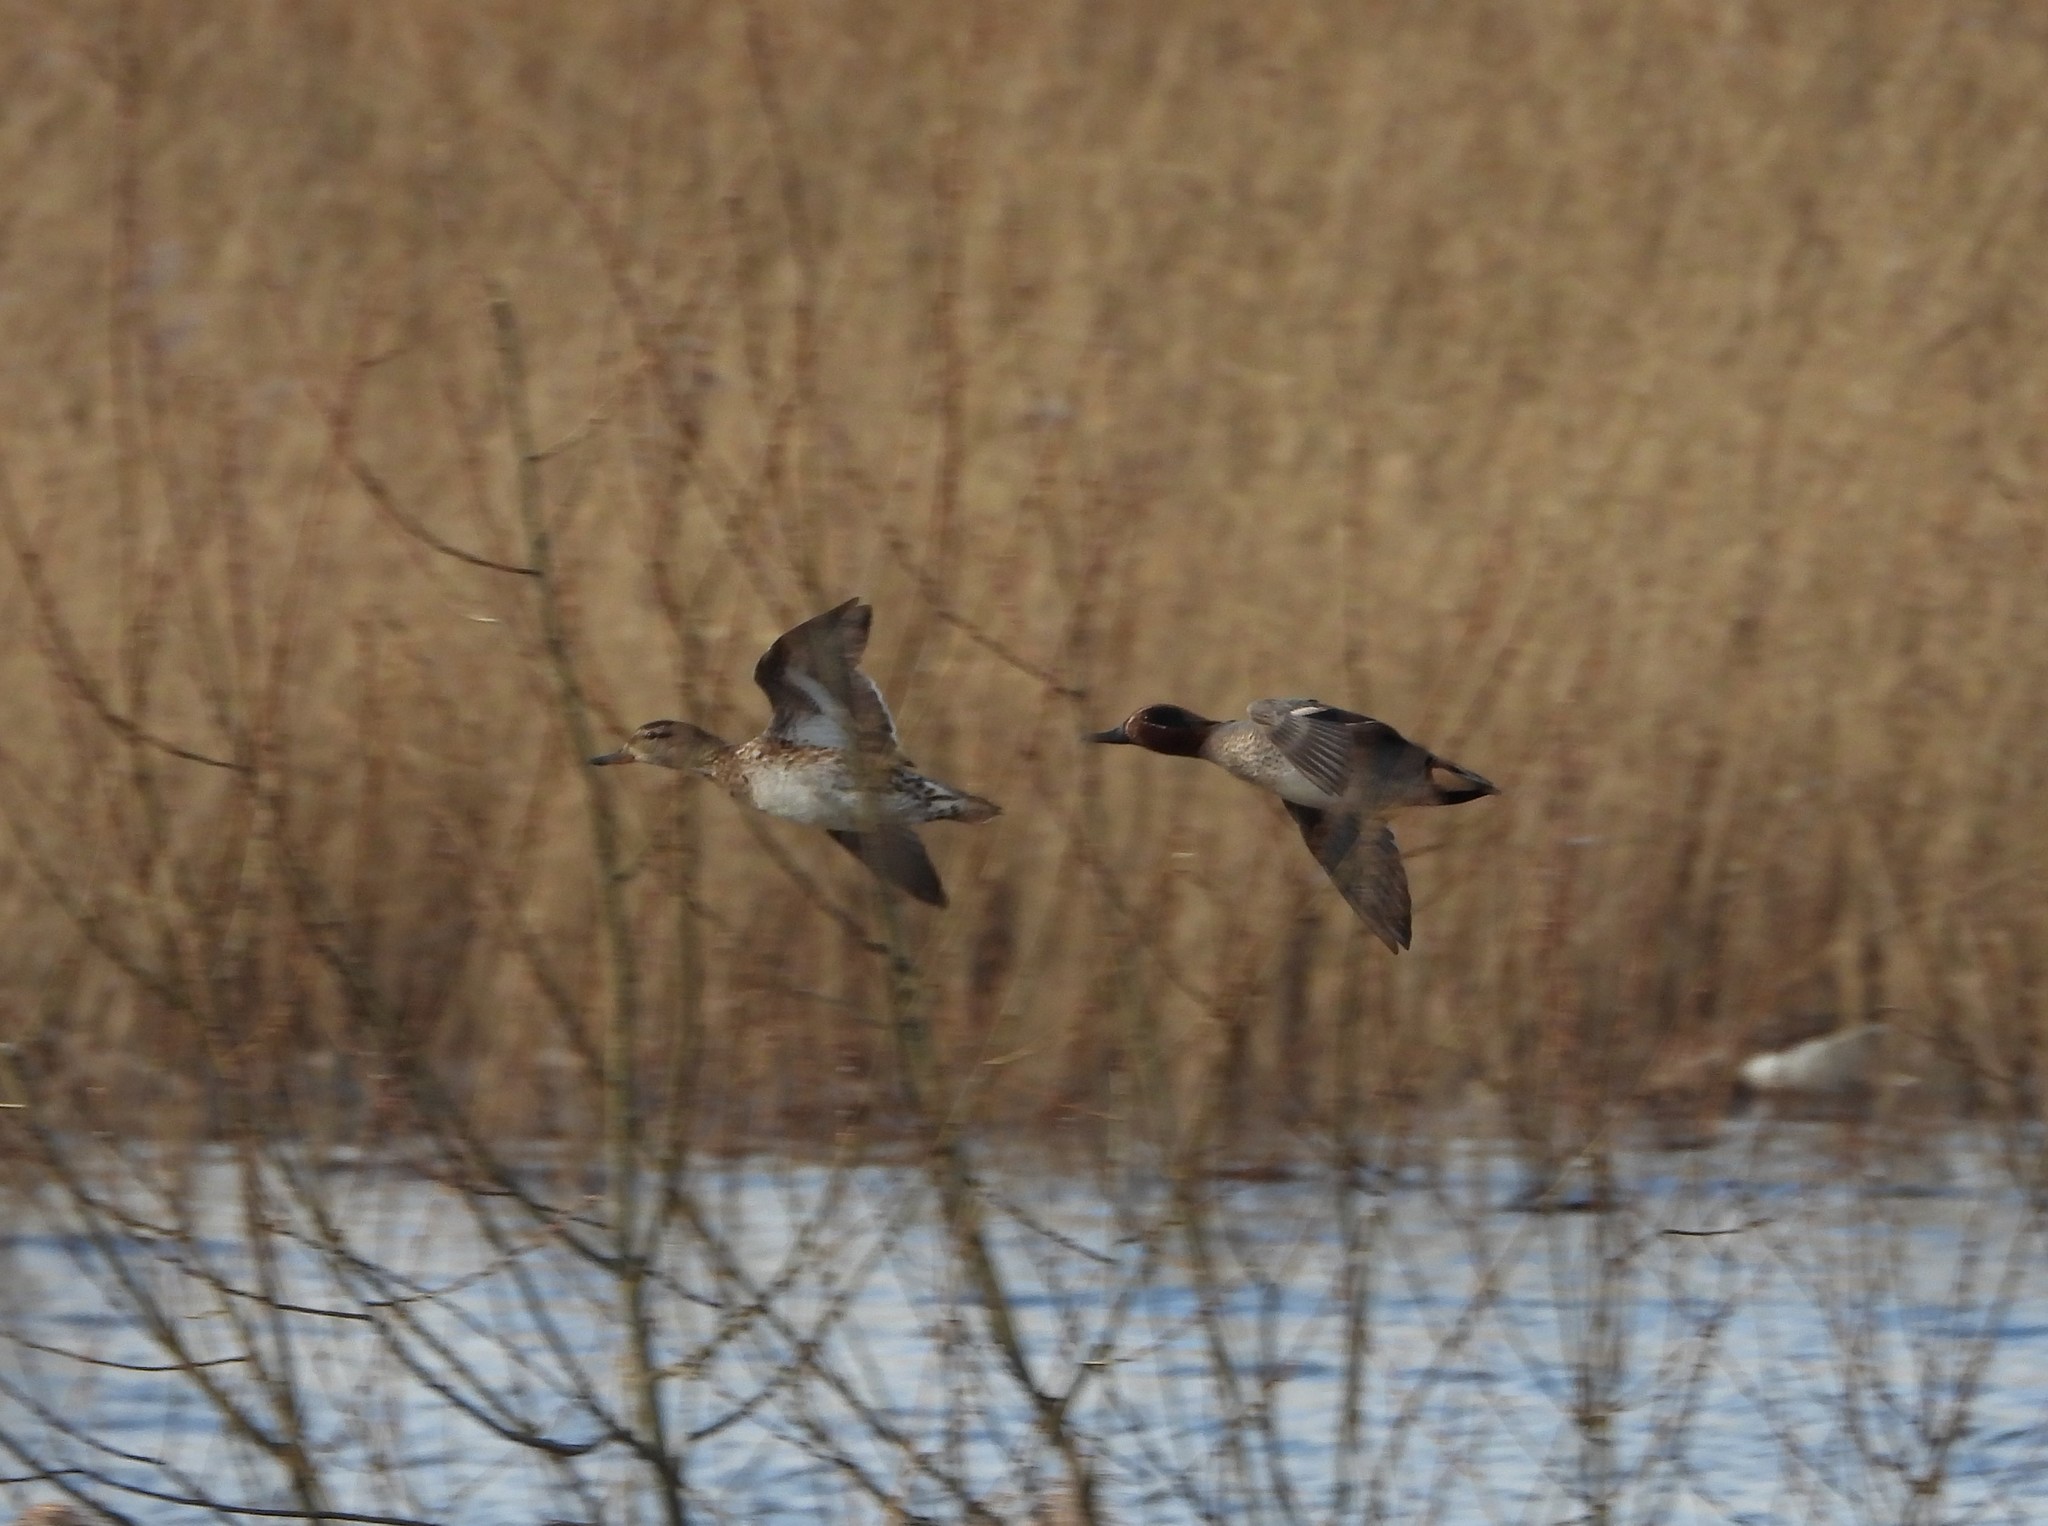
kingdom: Animalia
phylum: Chordata
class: Aves
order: Anseriformes
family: Anatidae
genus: Anas
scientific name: Anas crecca
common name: Eurasian teal
